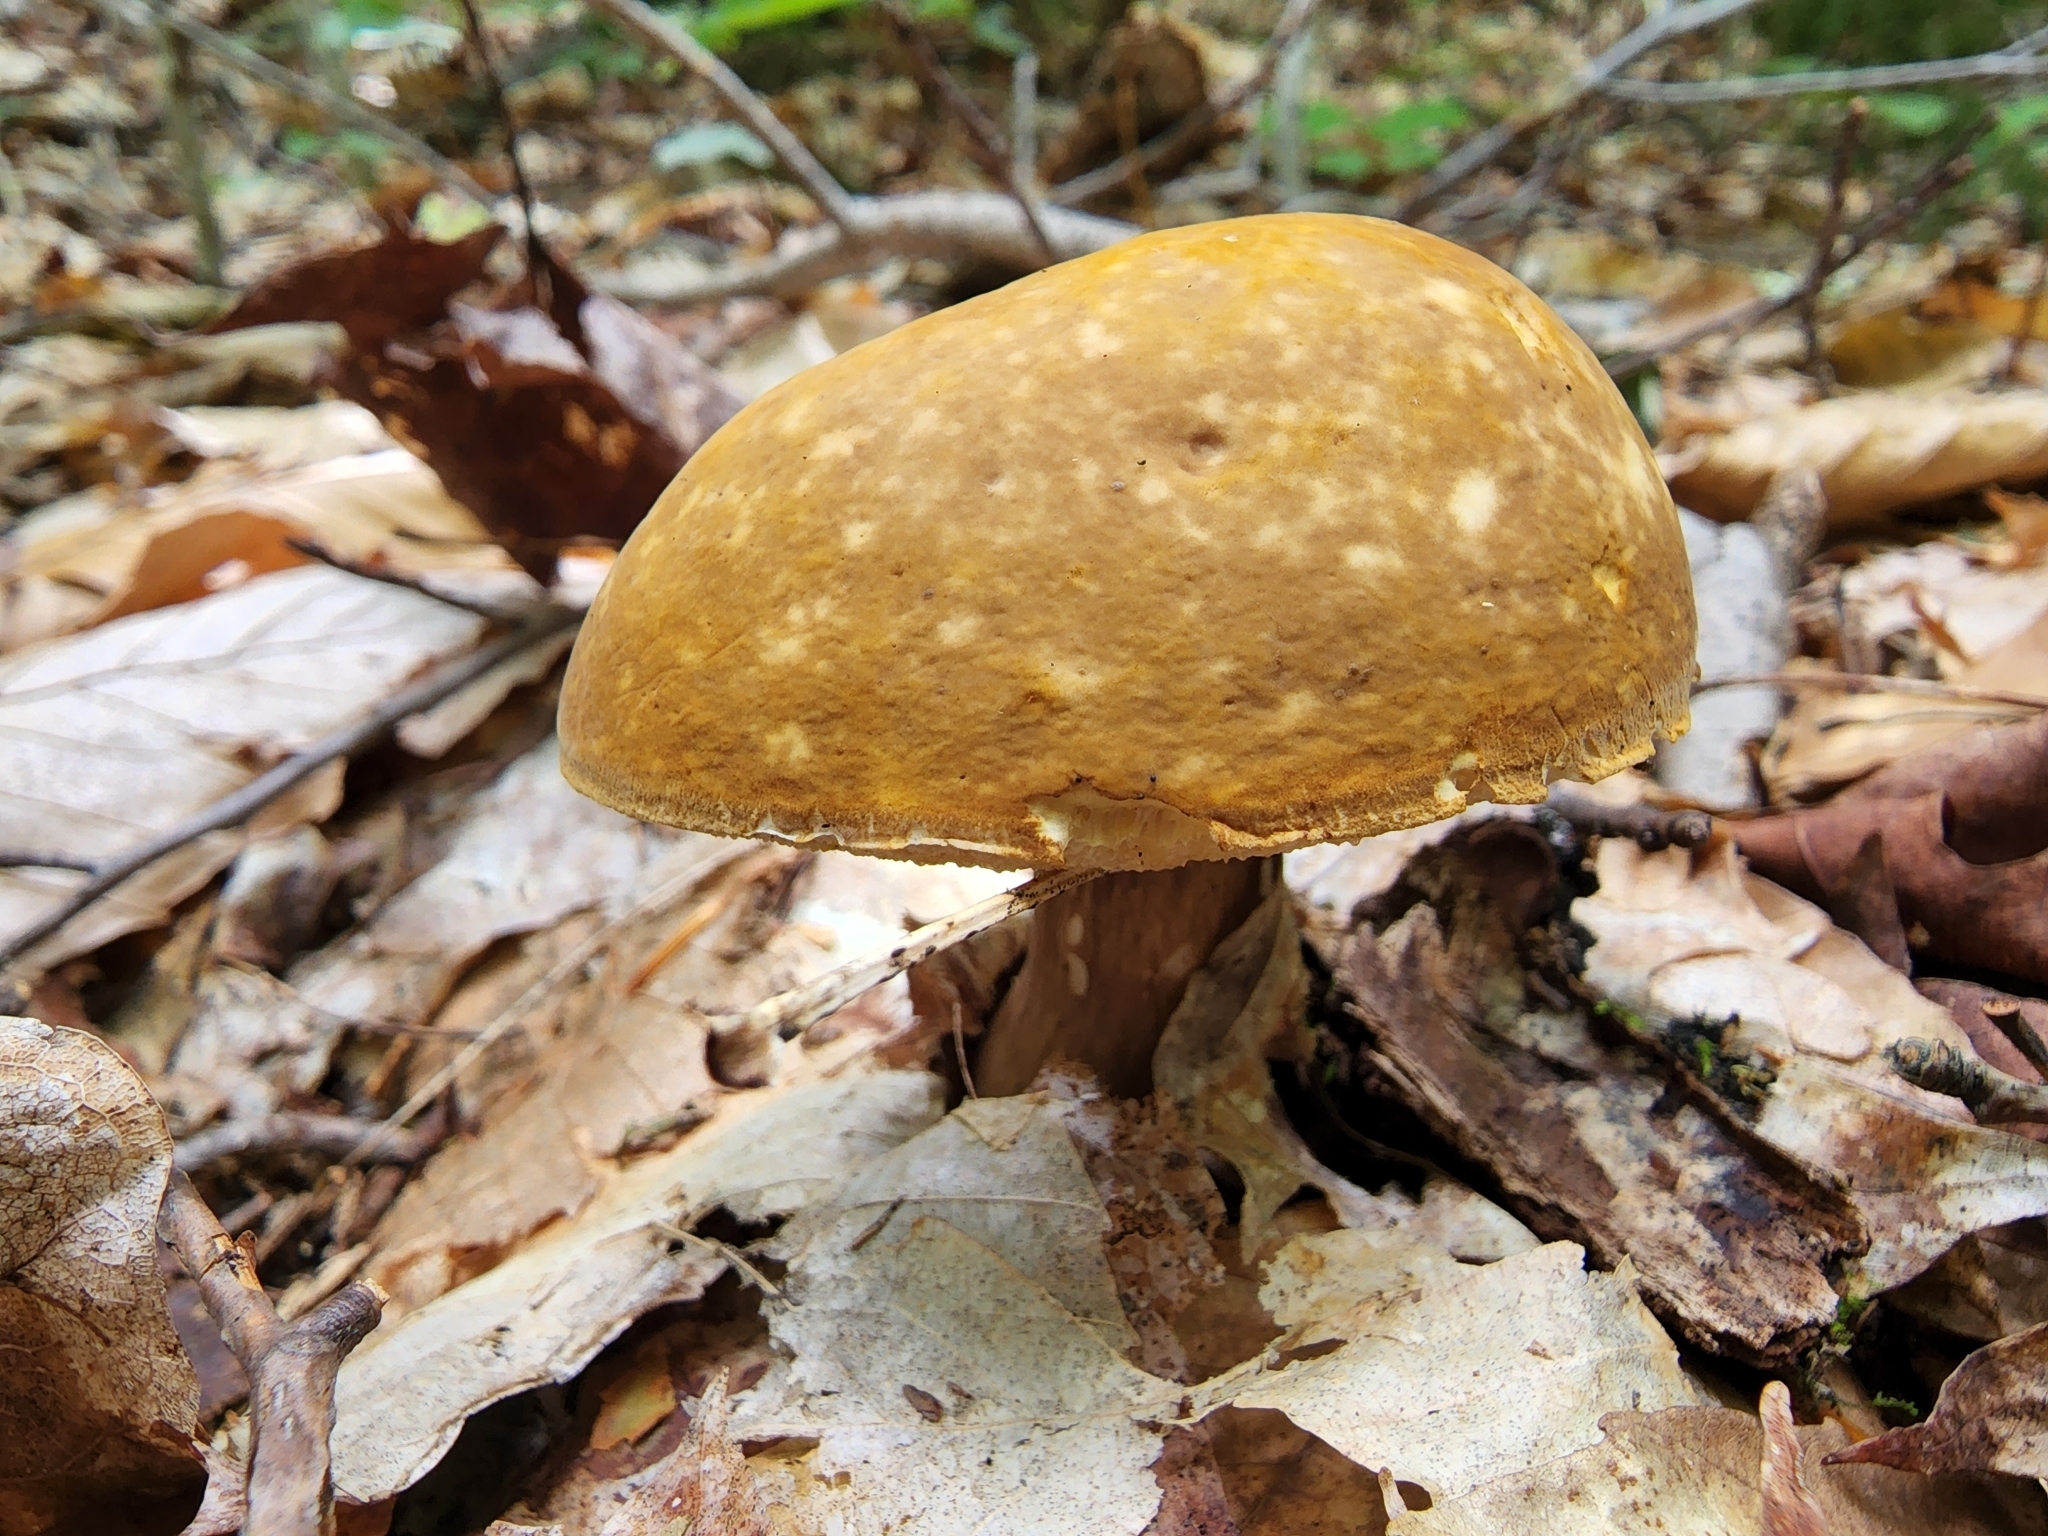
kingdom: Fungi
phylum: Basidiomycota
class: Agaricomycetes
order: Boletales
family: Boletaceae
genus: Xanthoconium
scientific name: Xanthoconium affine
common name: Spotted bolete
